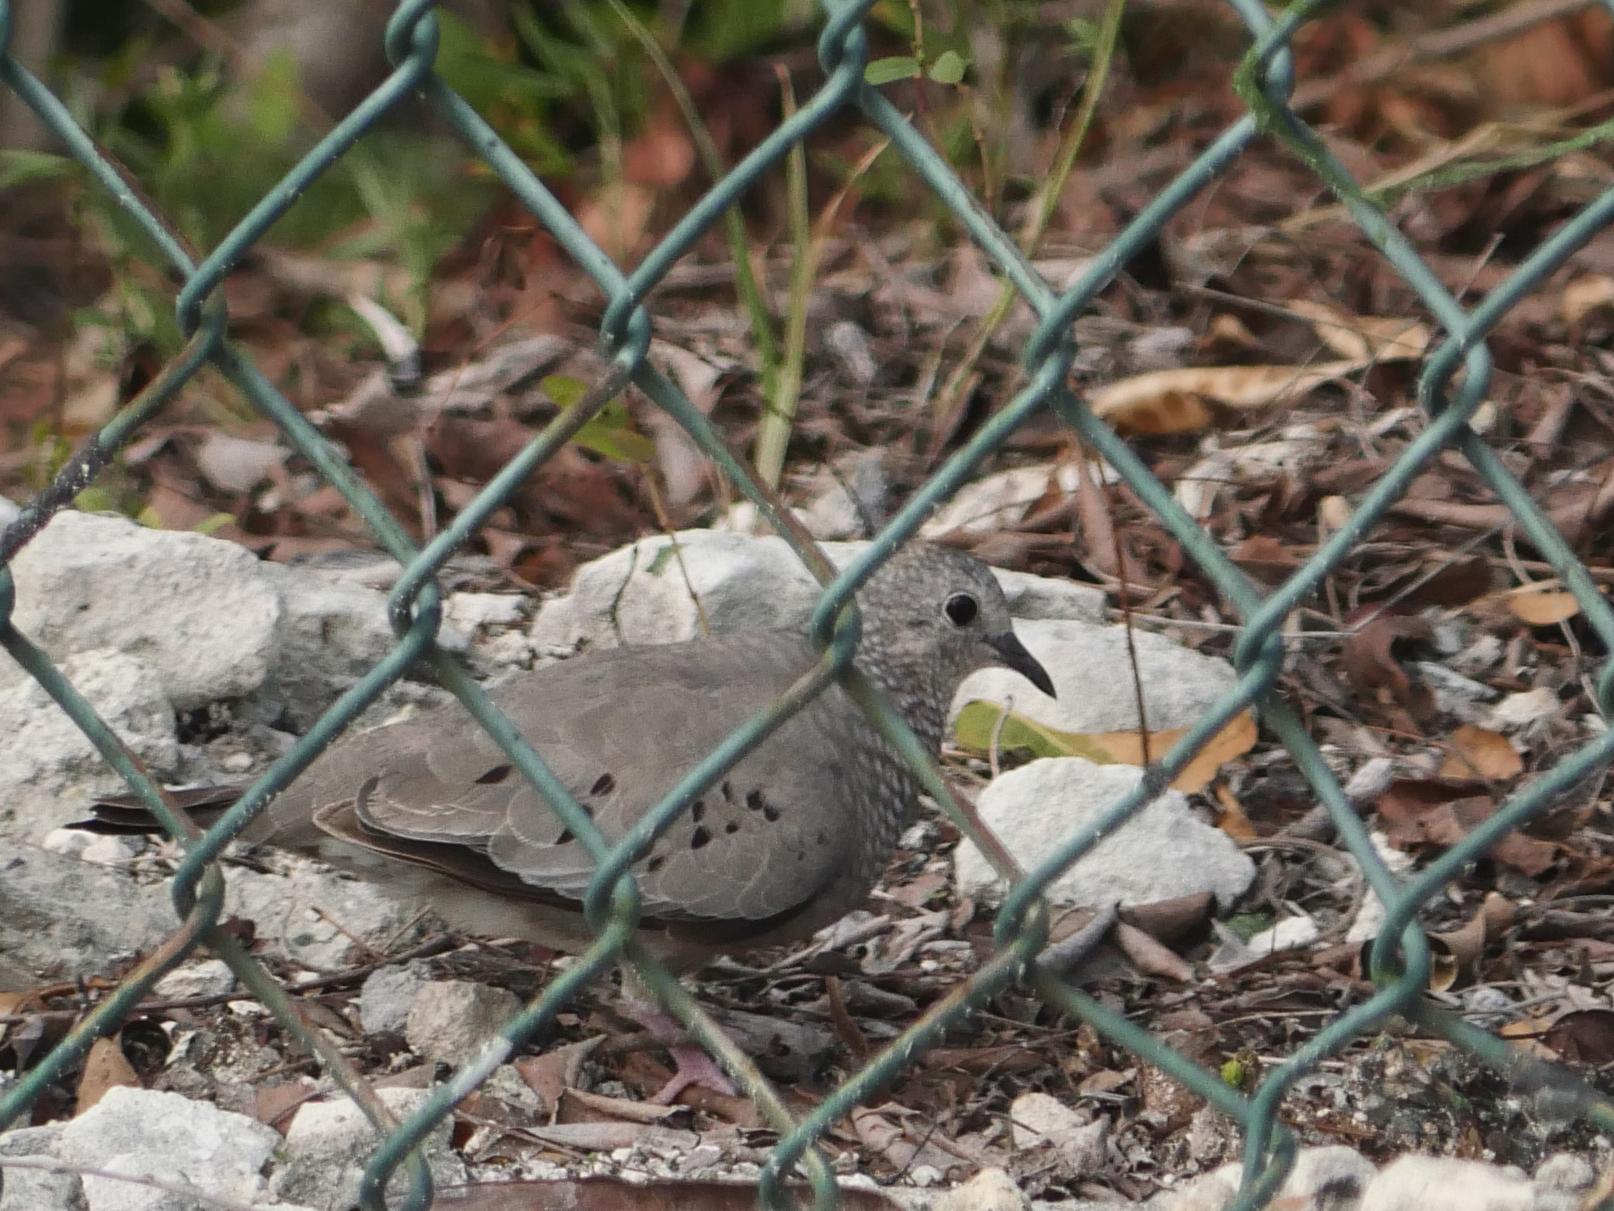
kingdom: Animalia
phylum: Chordata
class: Aves
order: Columbiformes
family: Columbidae
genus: Columbina
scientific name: Columbina passerina
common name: Common ground-dove
